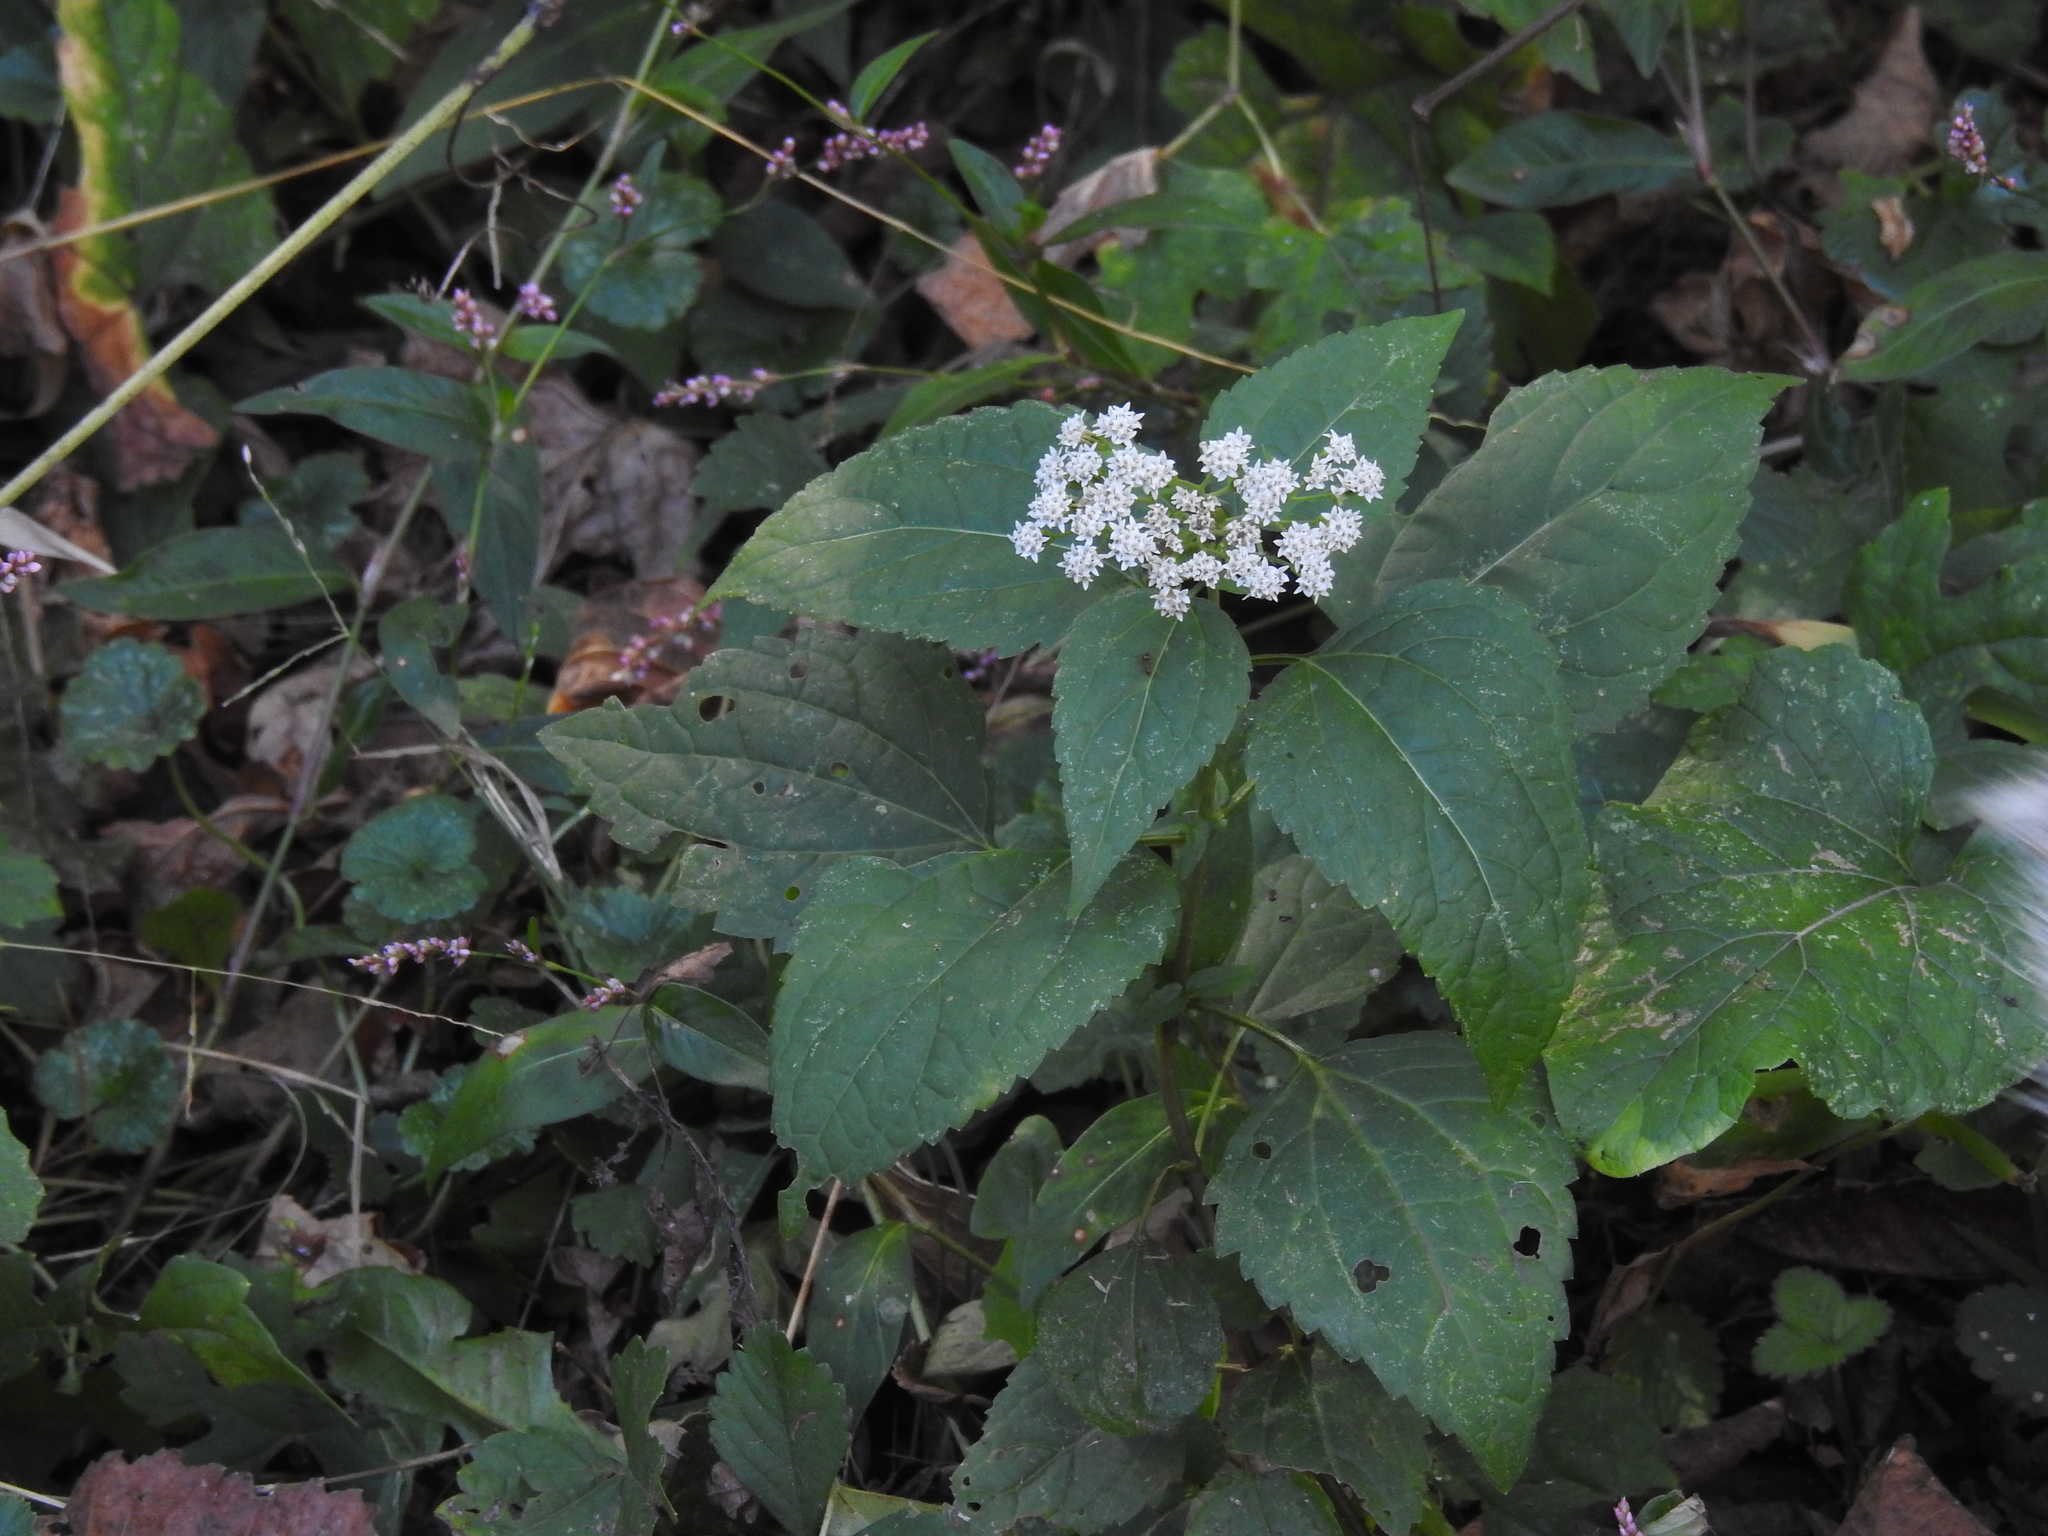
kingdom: Plantae
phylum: Tracheophyta
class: Magnoliopsida
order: Asterales
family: Asteraceae
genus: Ageratina
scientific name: Ageratina altissima
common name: White snakeroot
